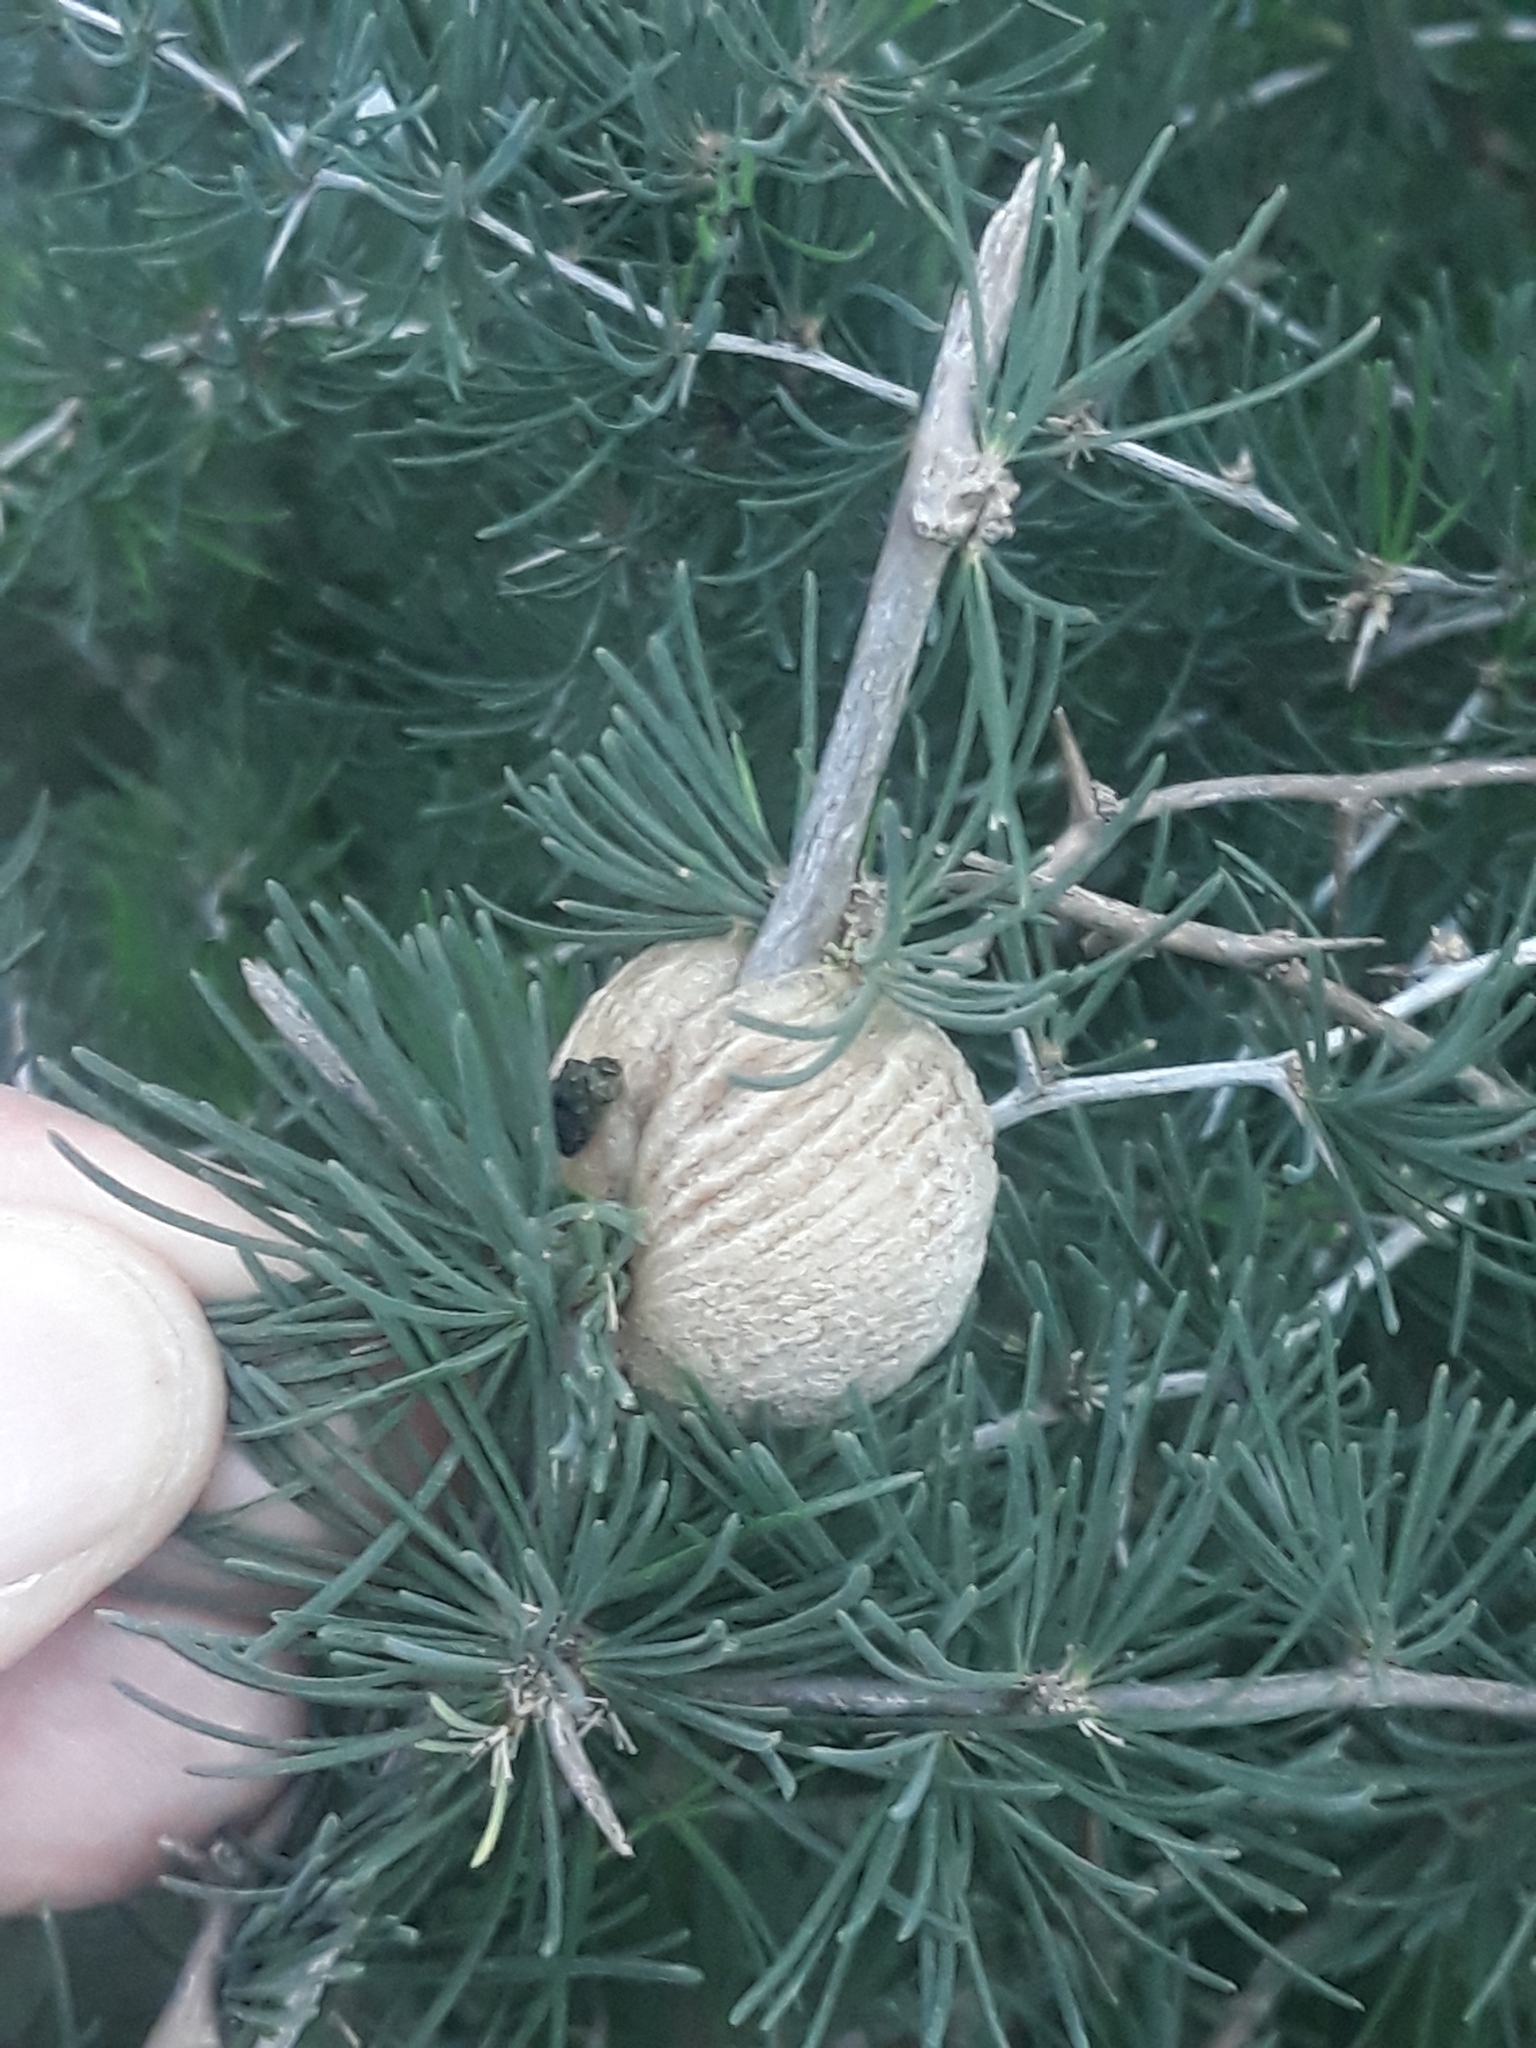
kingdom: Animalia
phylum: Arthropoda
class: Insecta
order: Mantodea
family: Mantidae
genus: Sphodromantis
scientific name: Sphodromantis viridis
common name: Giant african mantis
